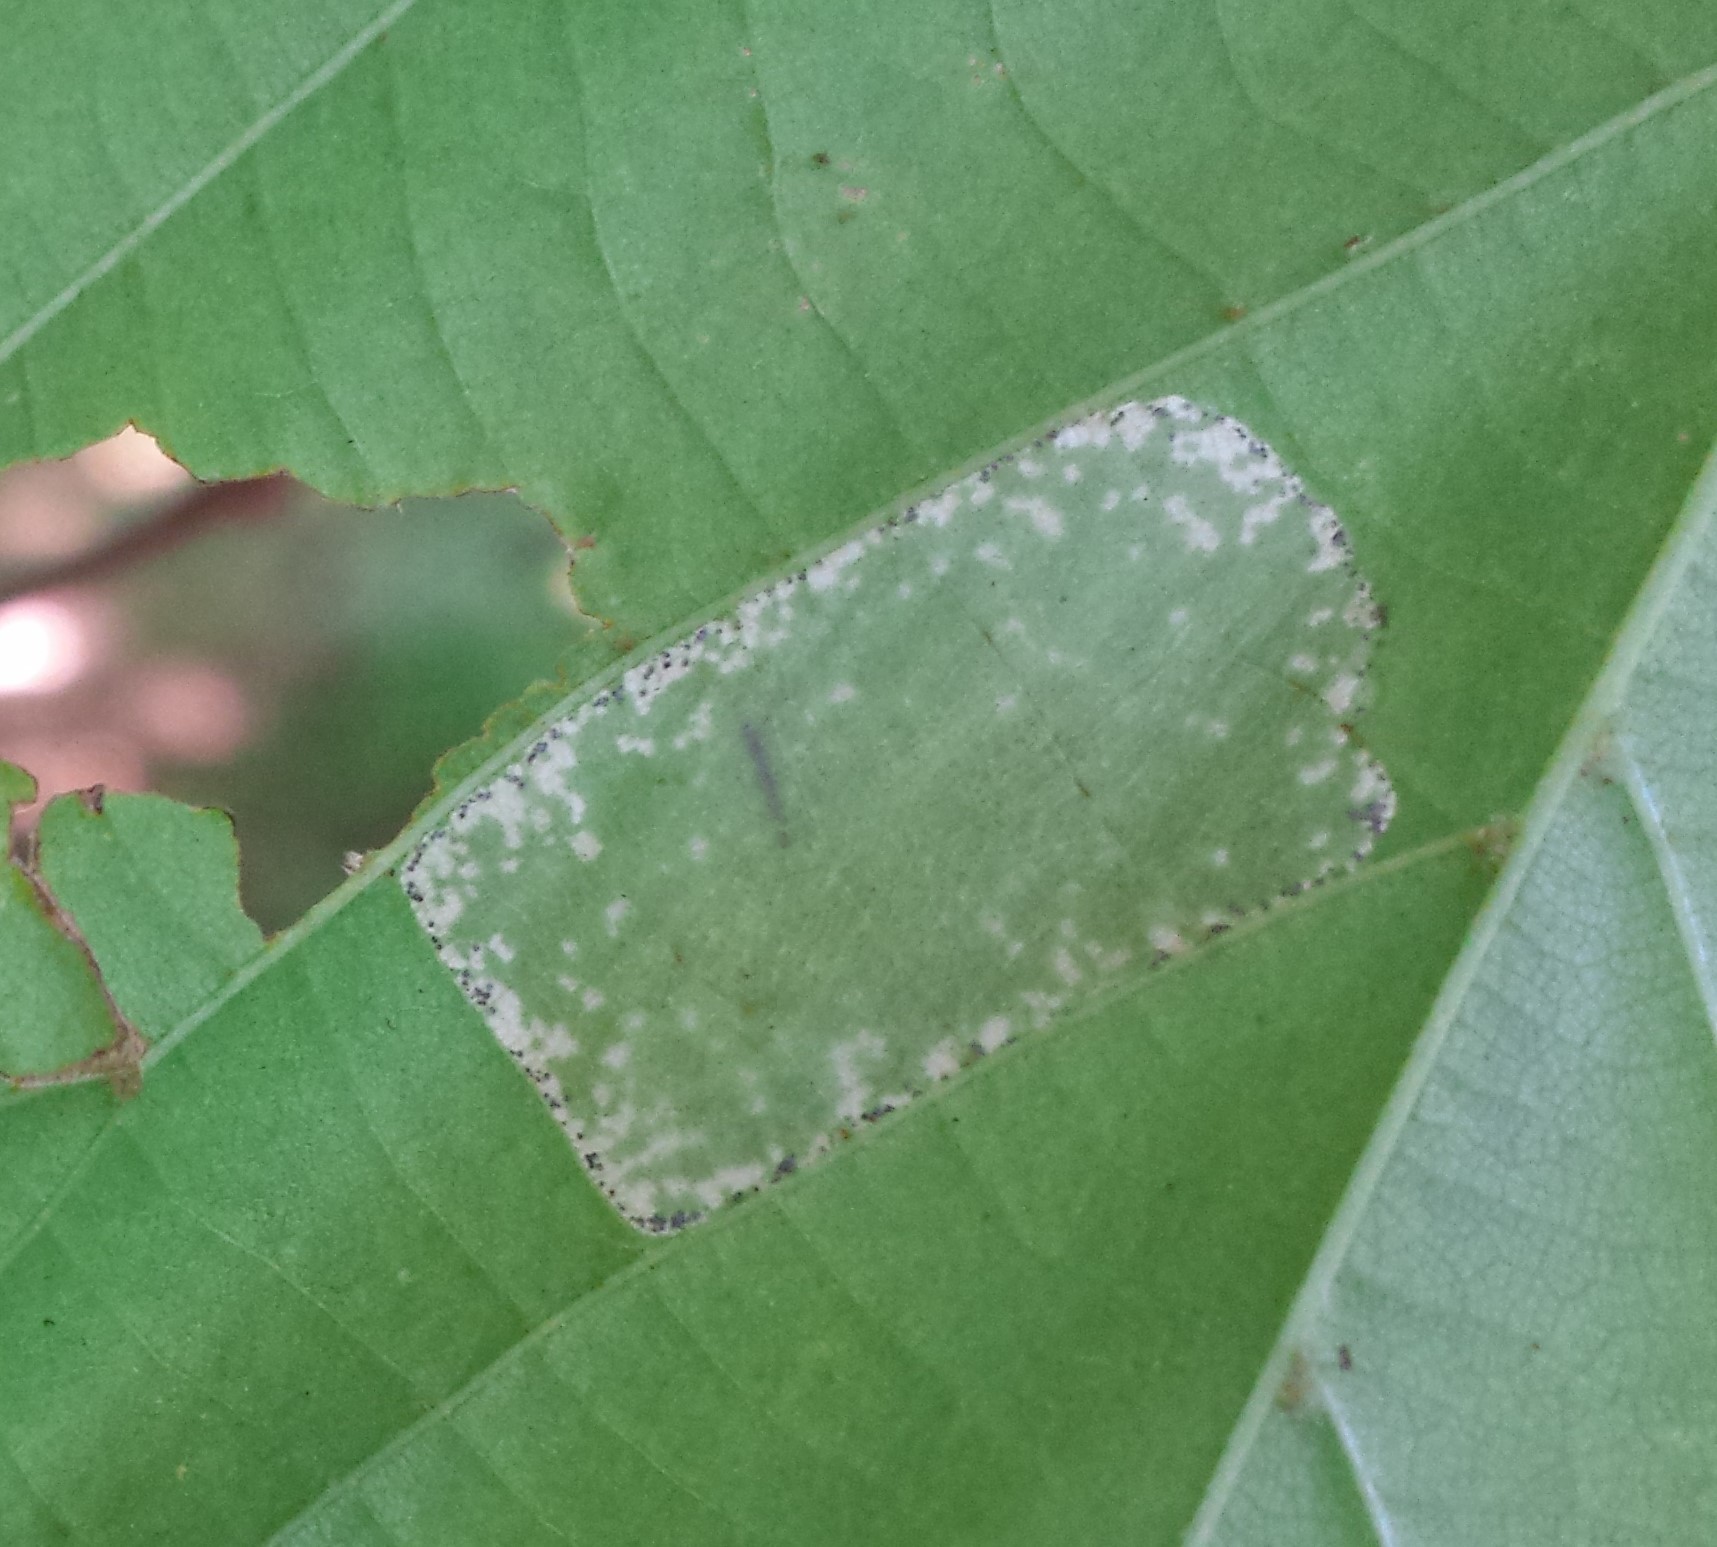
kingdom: Animalia
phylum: Arthropoda
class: Insecta
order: Lepidoptera
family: Gracillariidae
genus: Phyllonorycter
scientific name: Phyllonorycter lucetiella
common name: Basswood miner moth
